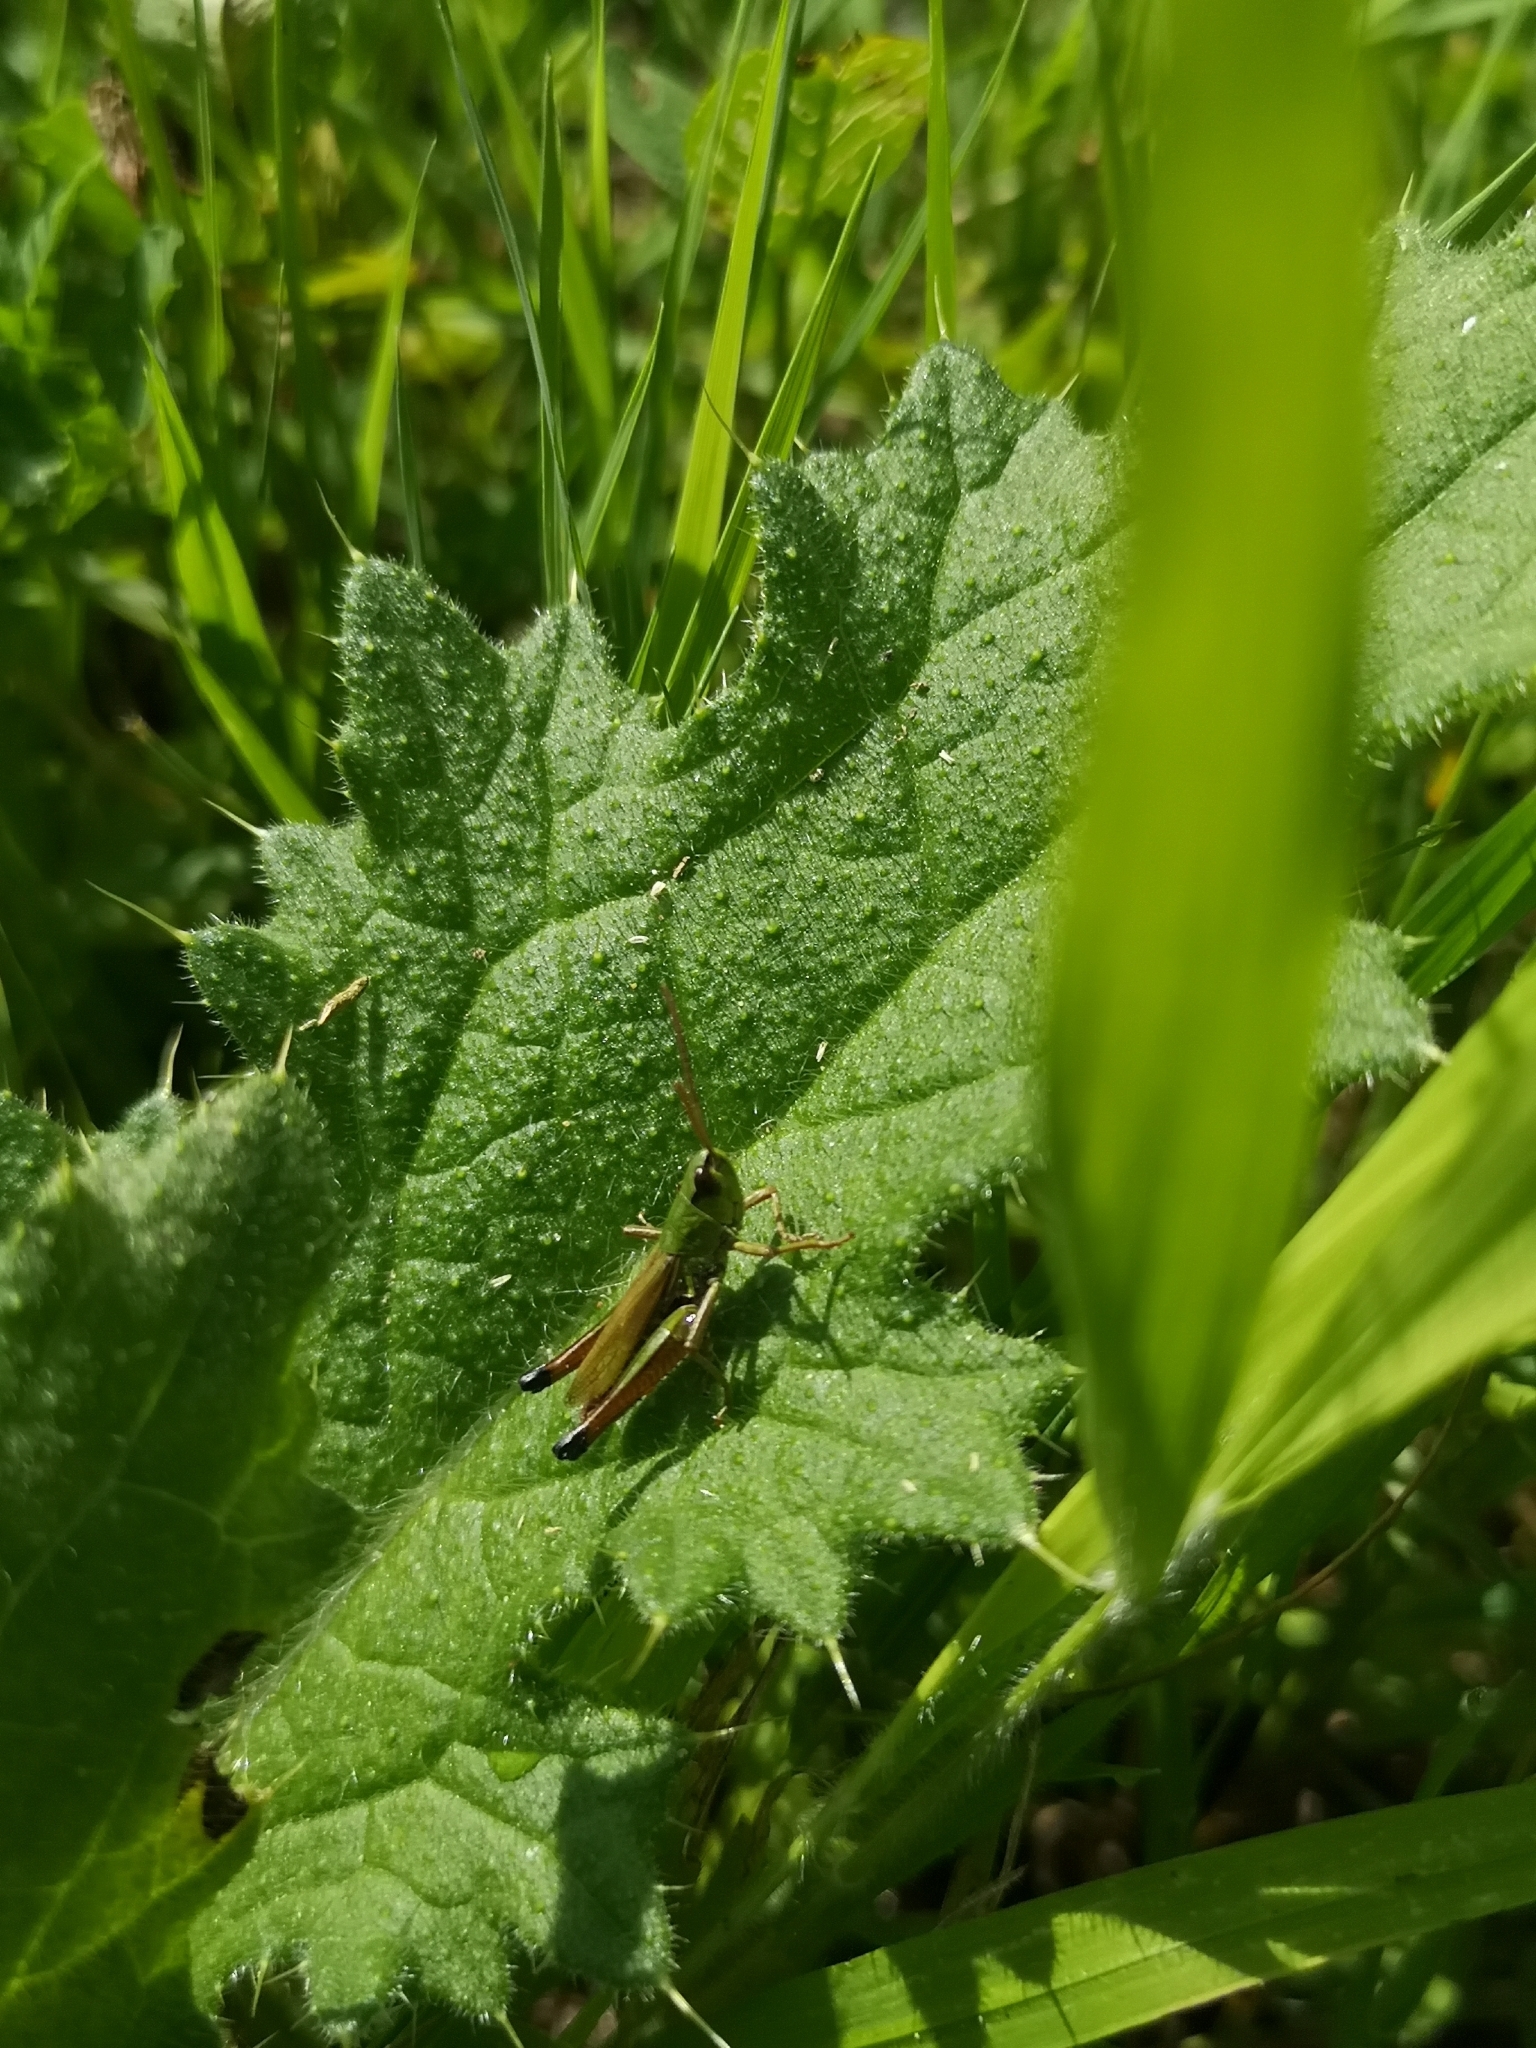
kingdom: Animalia
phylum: Arthropoda
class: Insecta
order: Orthoptera
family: Acrididae
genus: Pseudochorthippus
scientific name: Pseudochorthippus parallelus
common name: Meadow grasshopper
